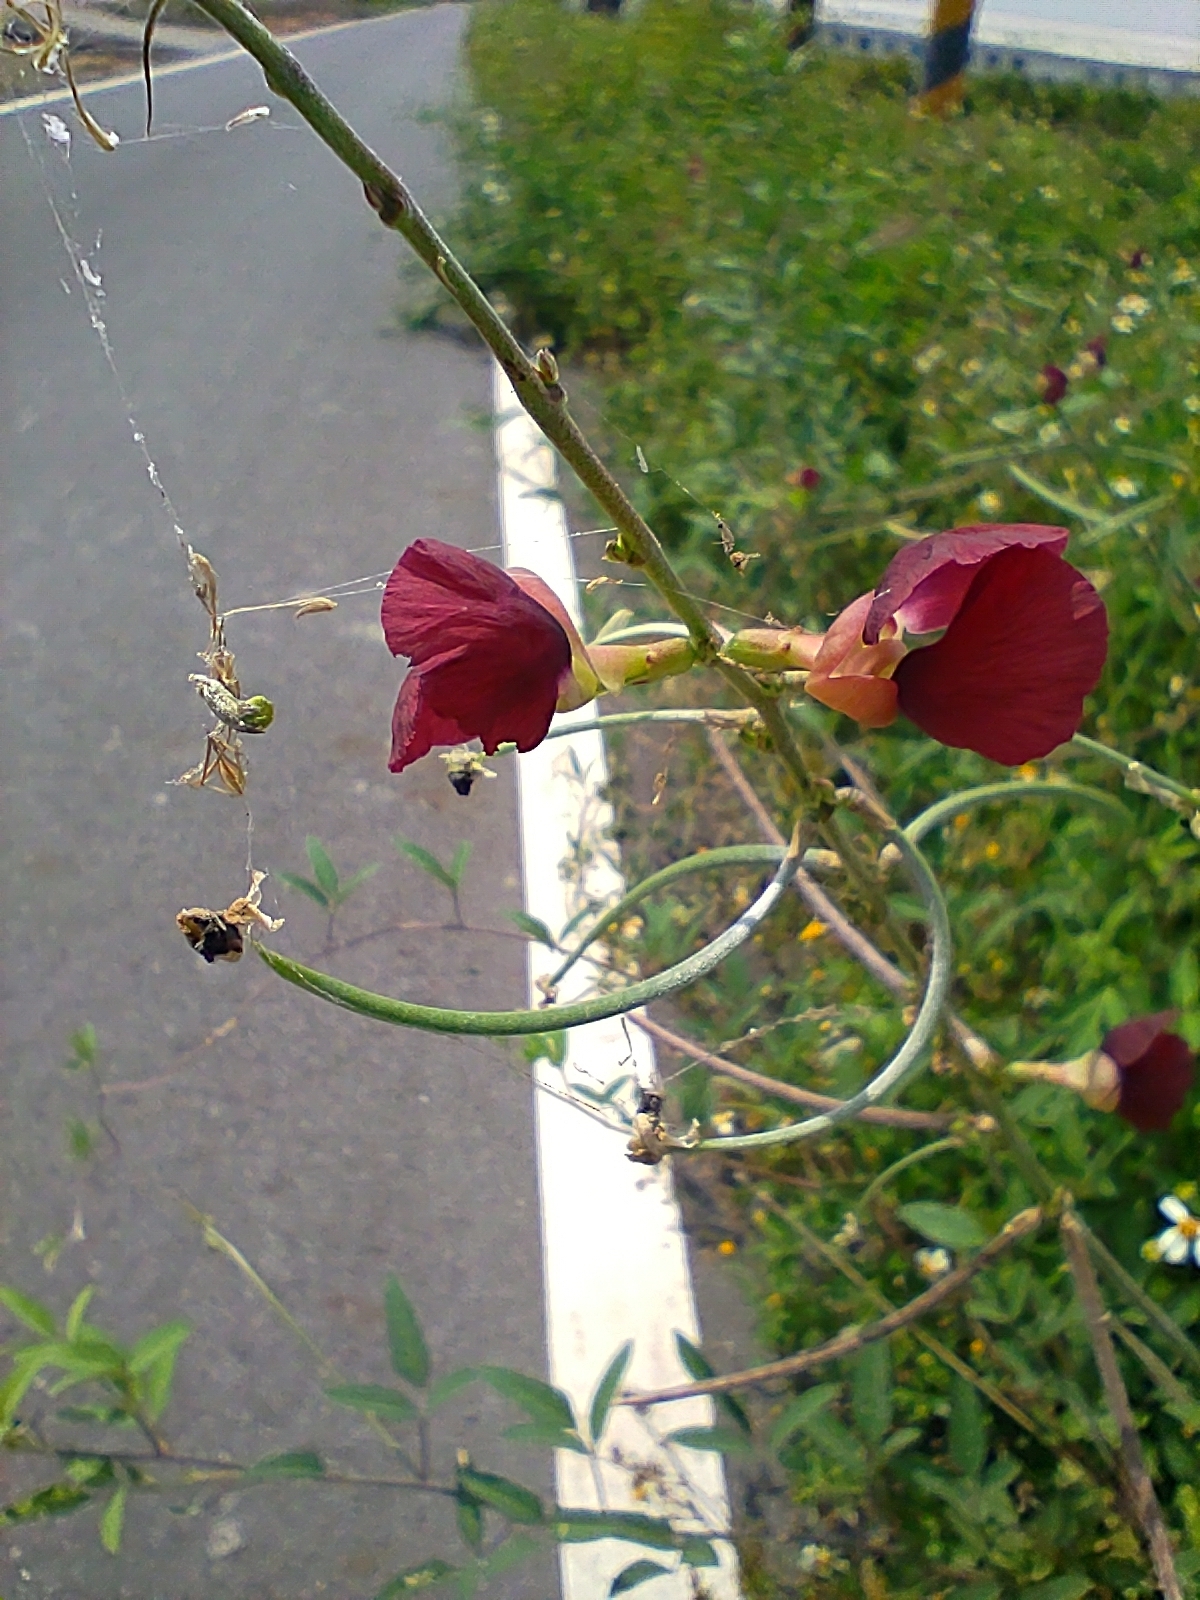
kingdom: Plantae
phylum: Tracheophyta
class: Magnoliopsida
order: Fabales
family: Fabaceae
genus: Macroptilium
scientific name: Macroptilium lathyroides
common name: Wild bushbean
